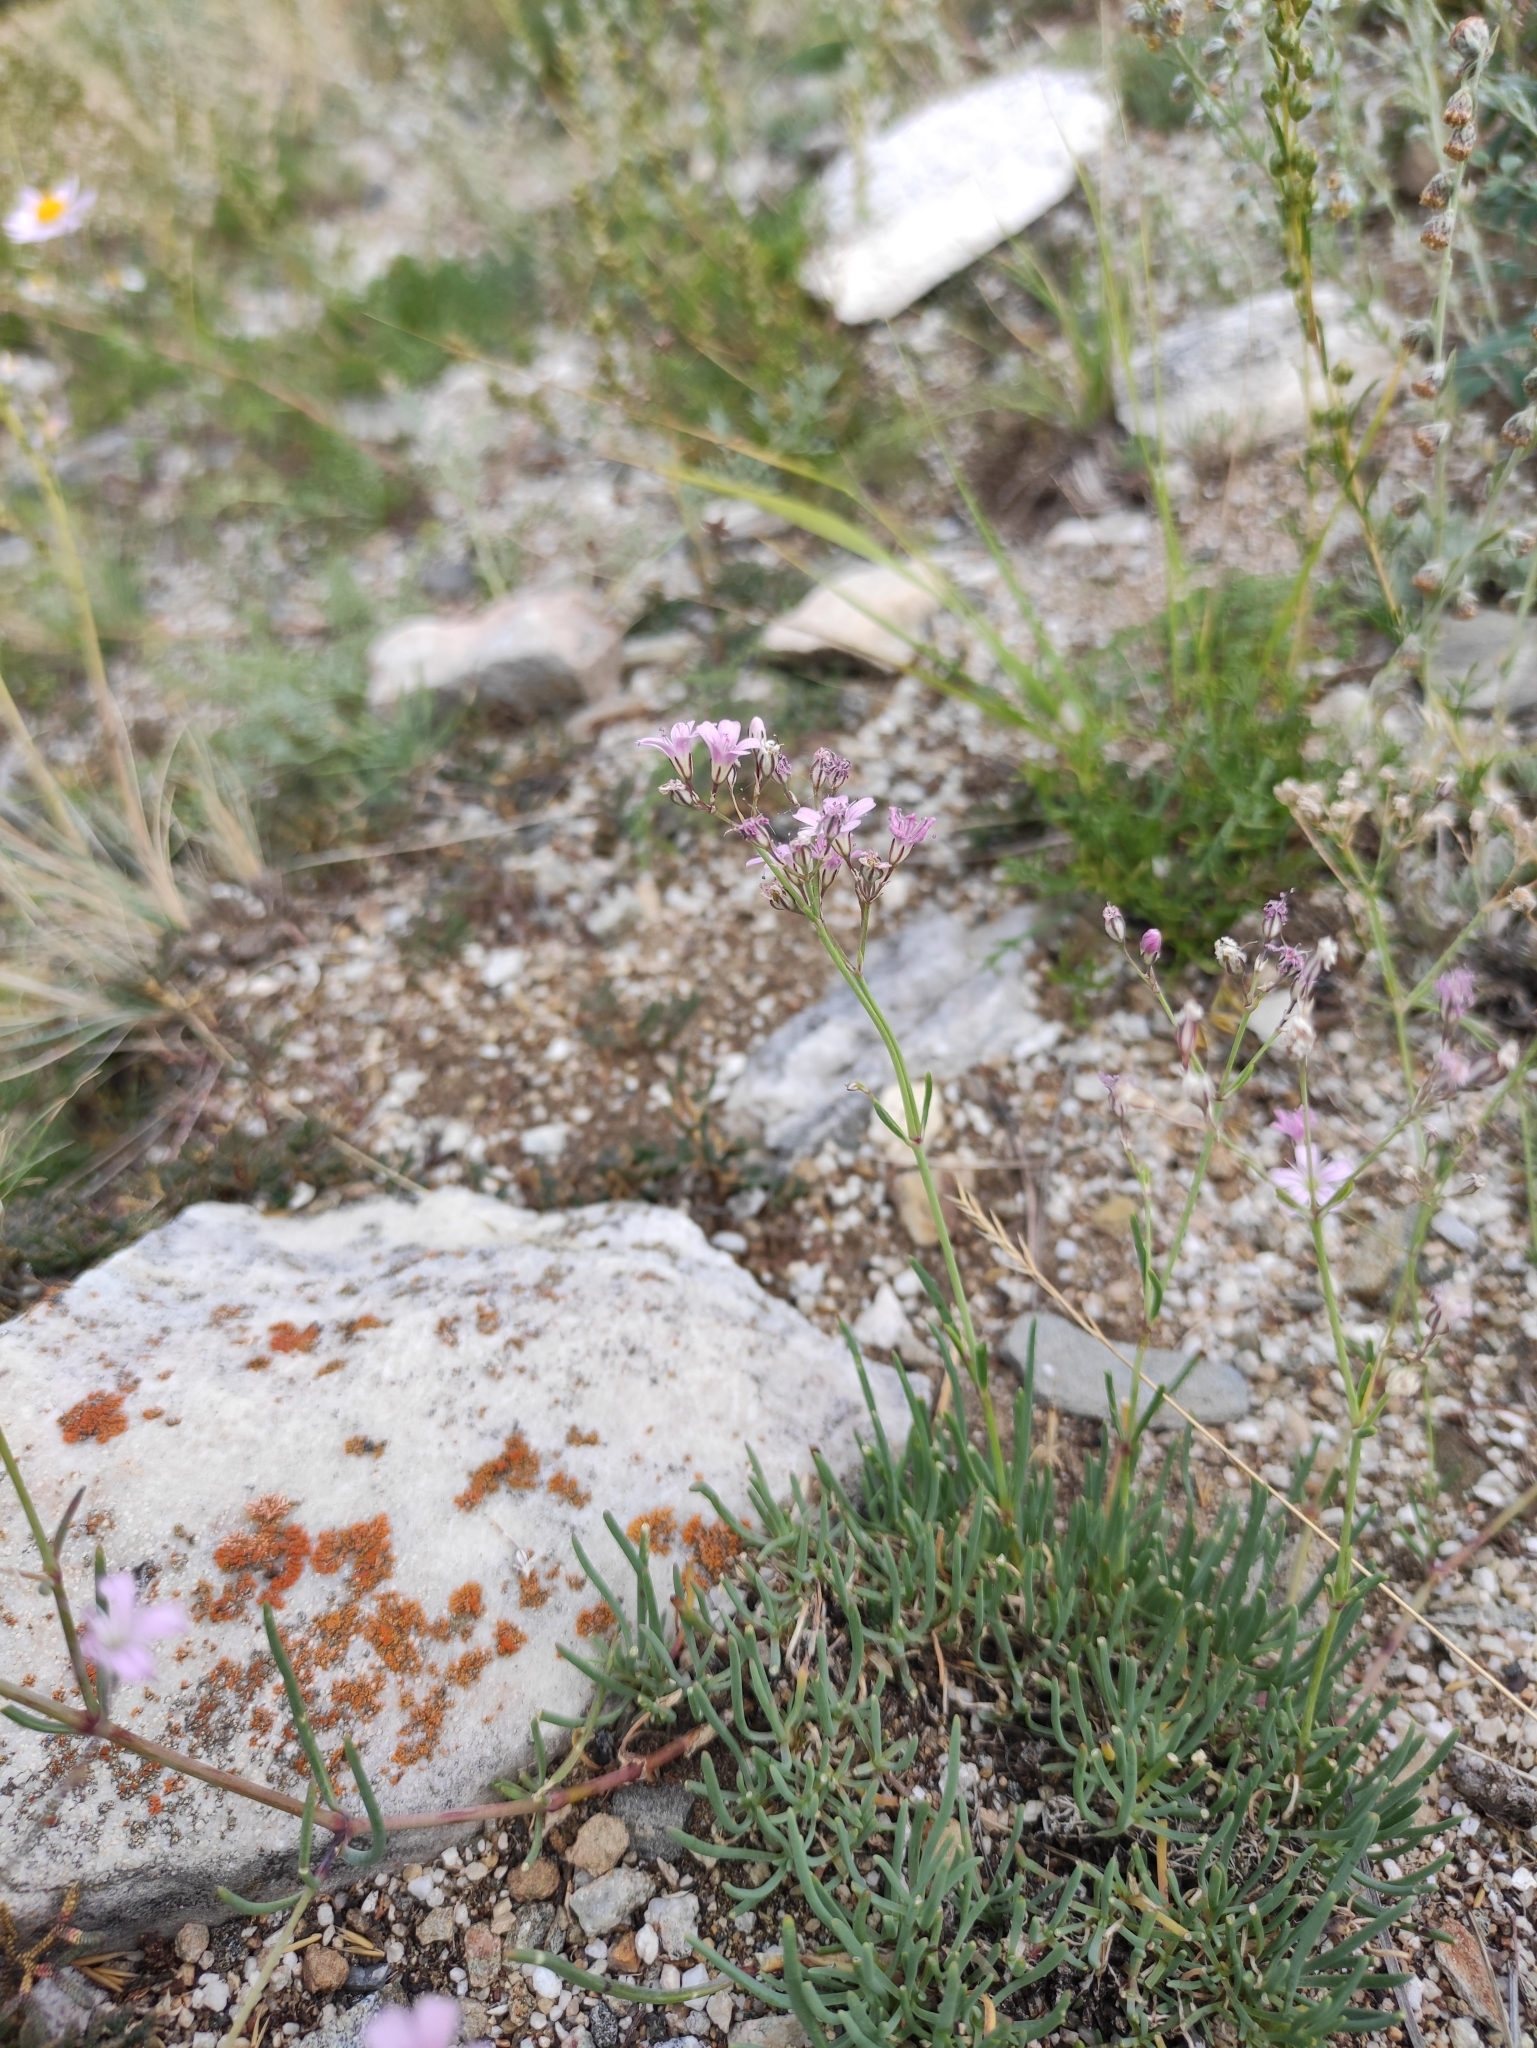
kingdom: Plantae
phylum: Tracheophyta
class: Magnoliopsida
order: Caryophyllales
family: Caryophyllaceae
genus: Gypsophila
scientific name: Gypsophila patrinii
